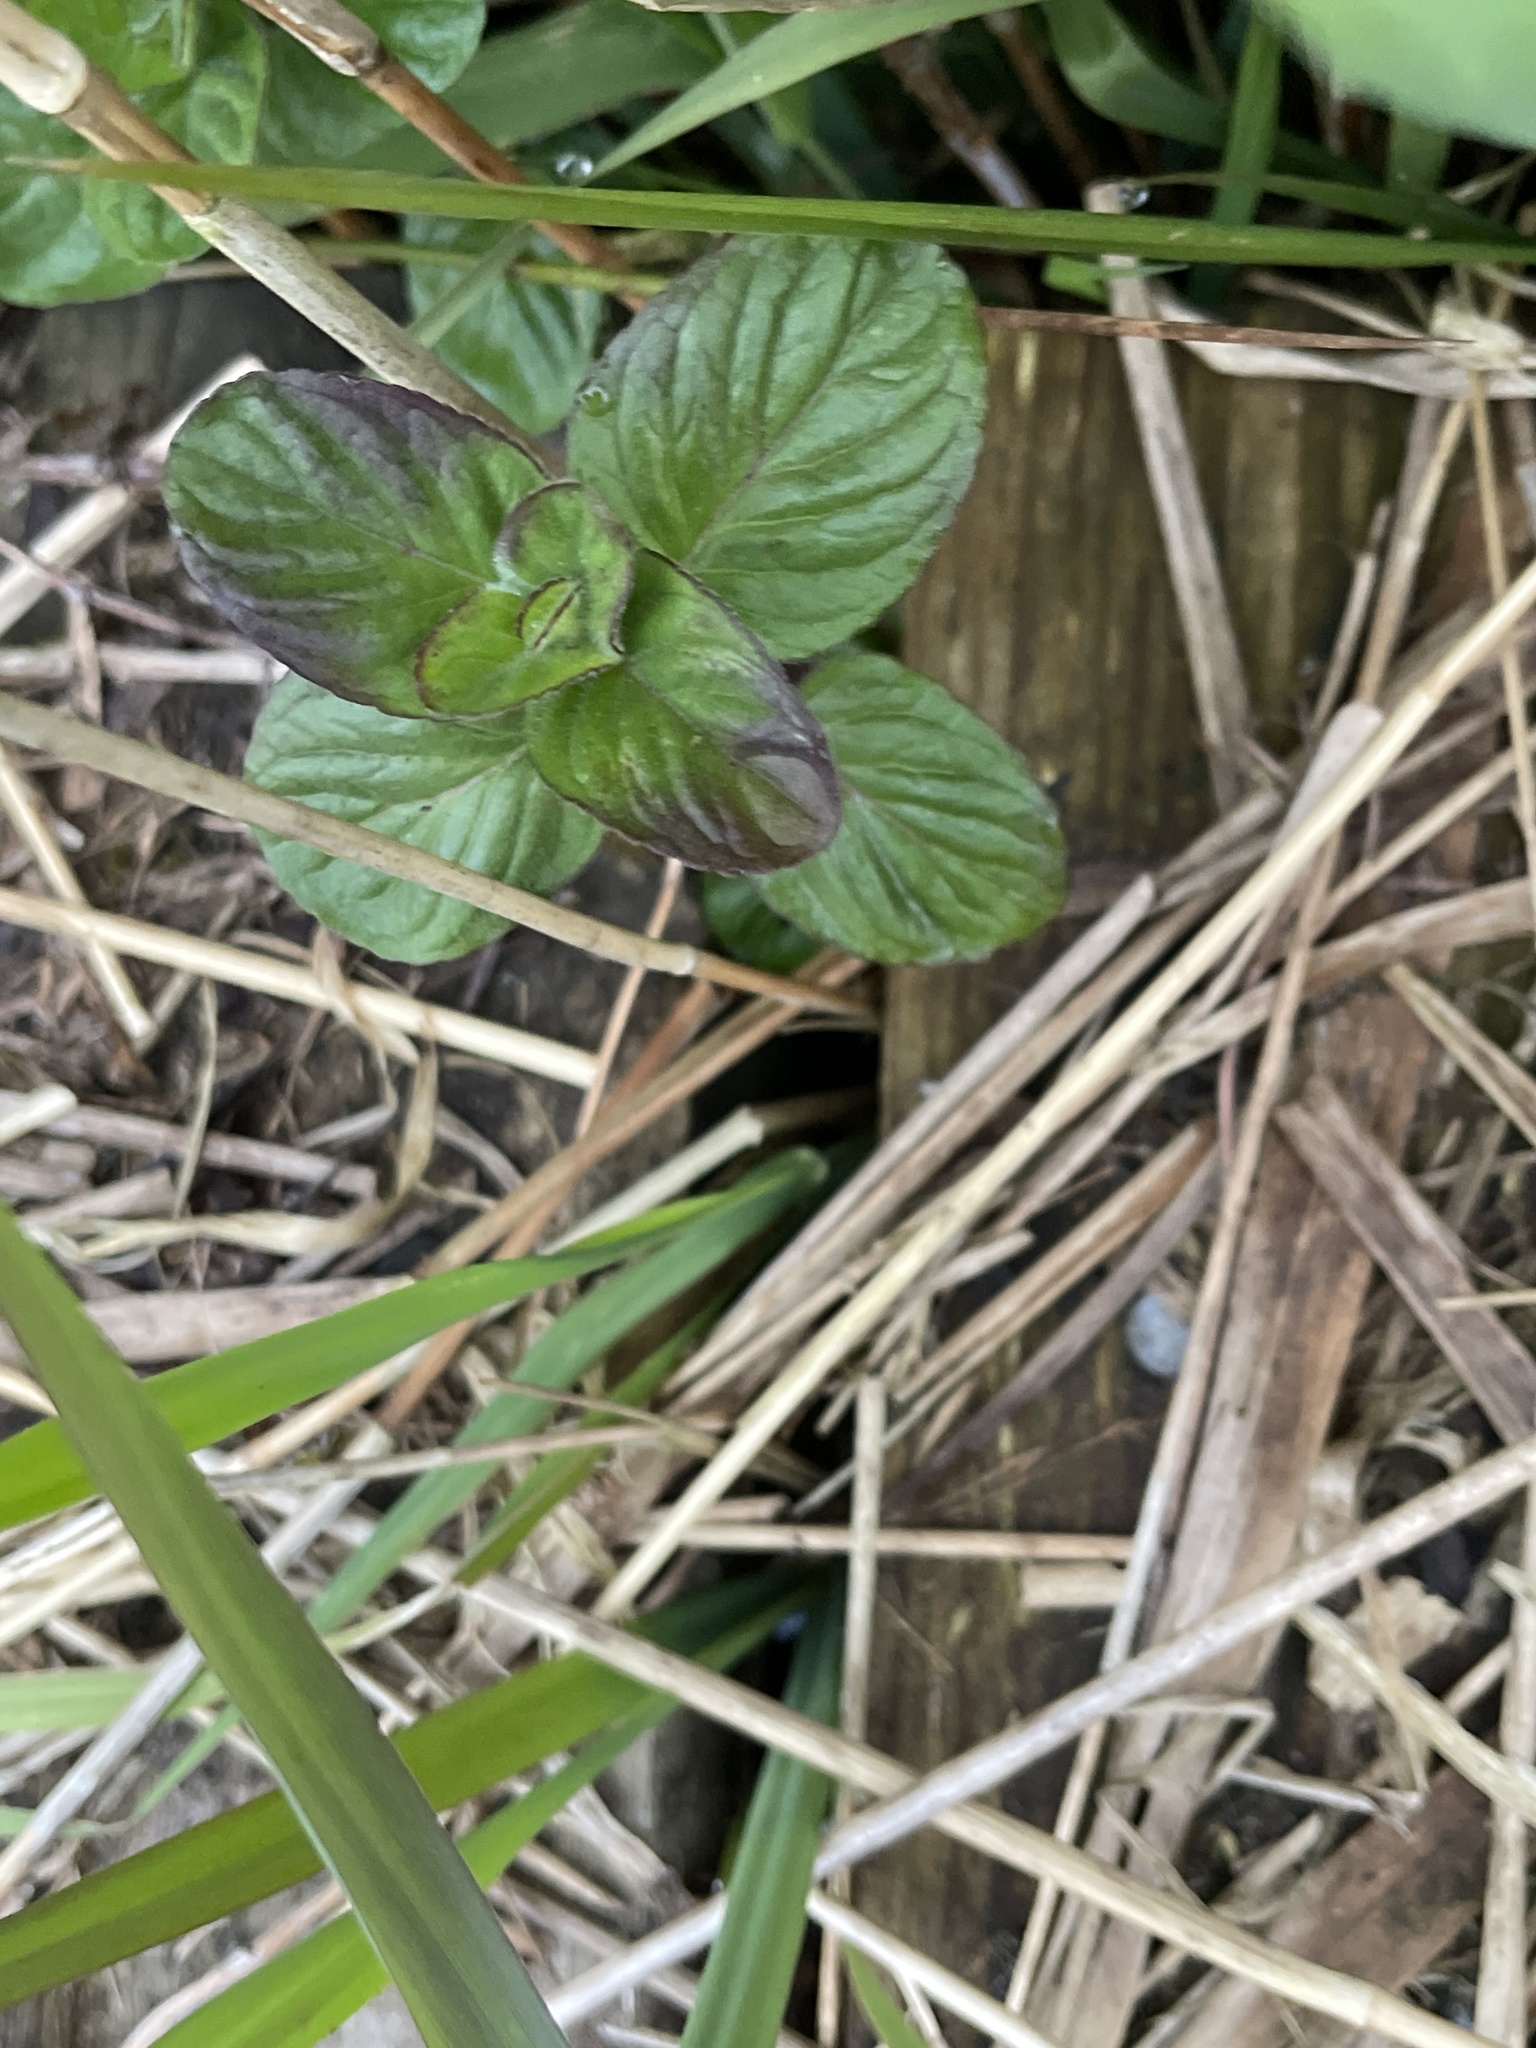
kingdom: Plantae
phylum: Tracheophyta
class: Magnoliopsida
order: Lamiales
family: Lamiaceae
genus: Mentha
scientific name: Mentha aquatica
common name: Water mint
